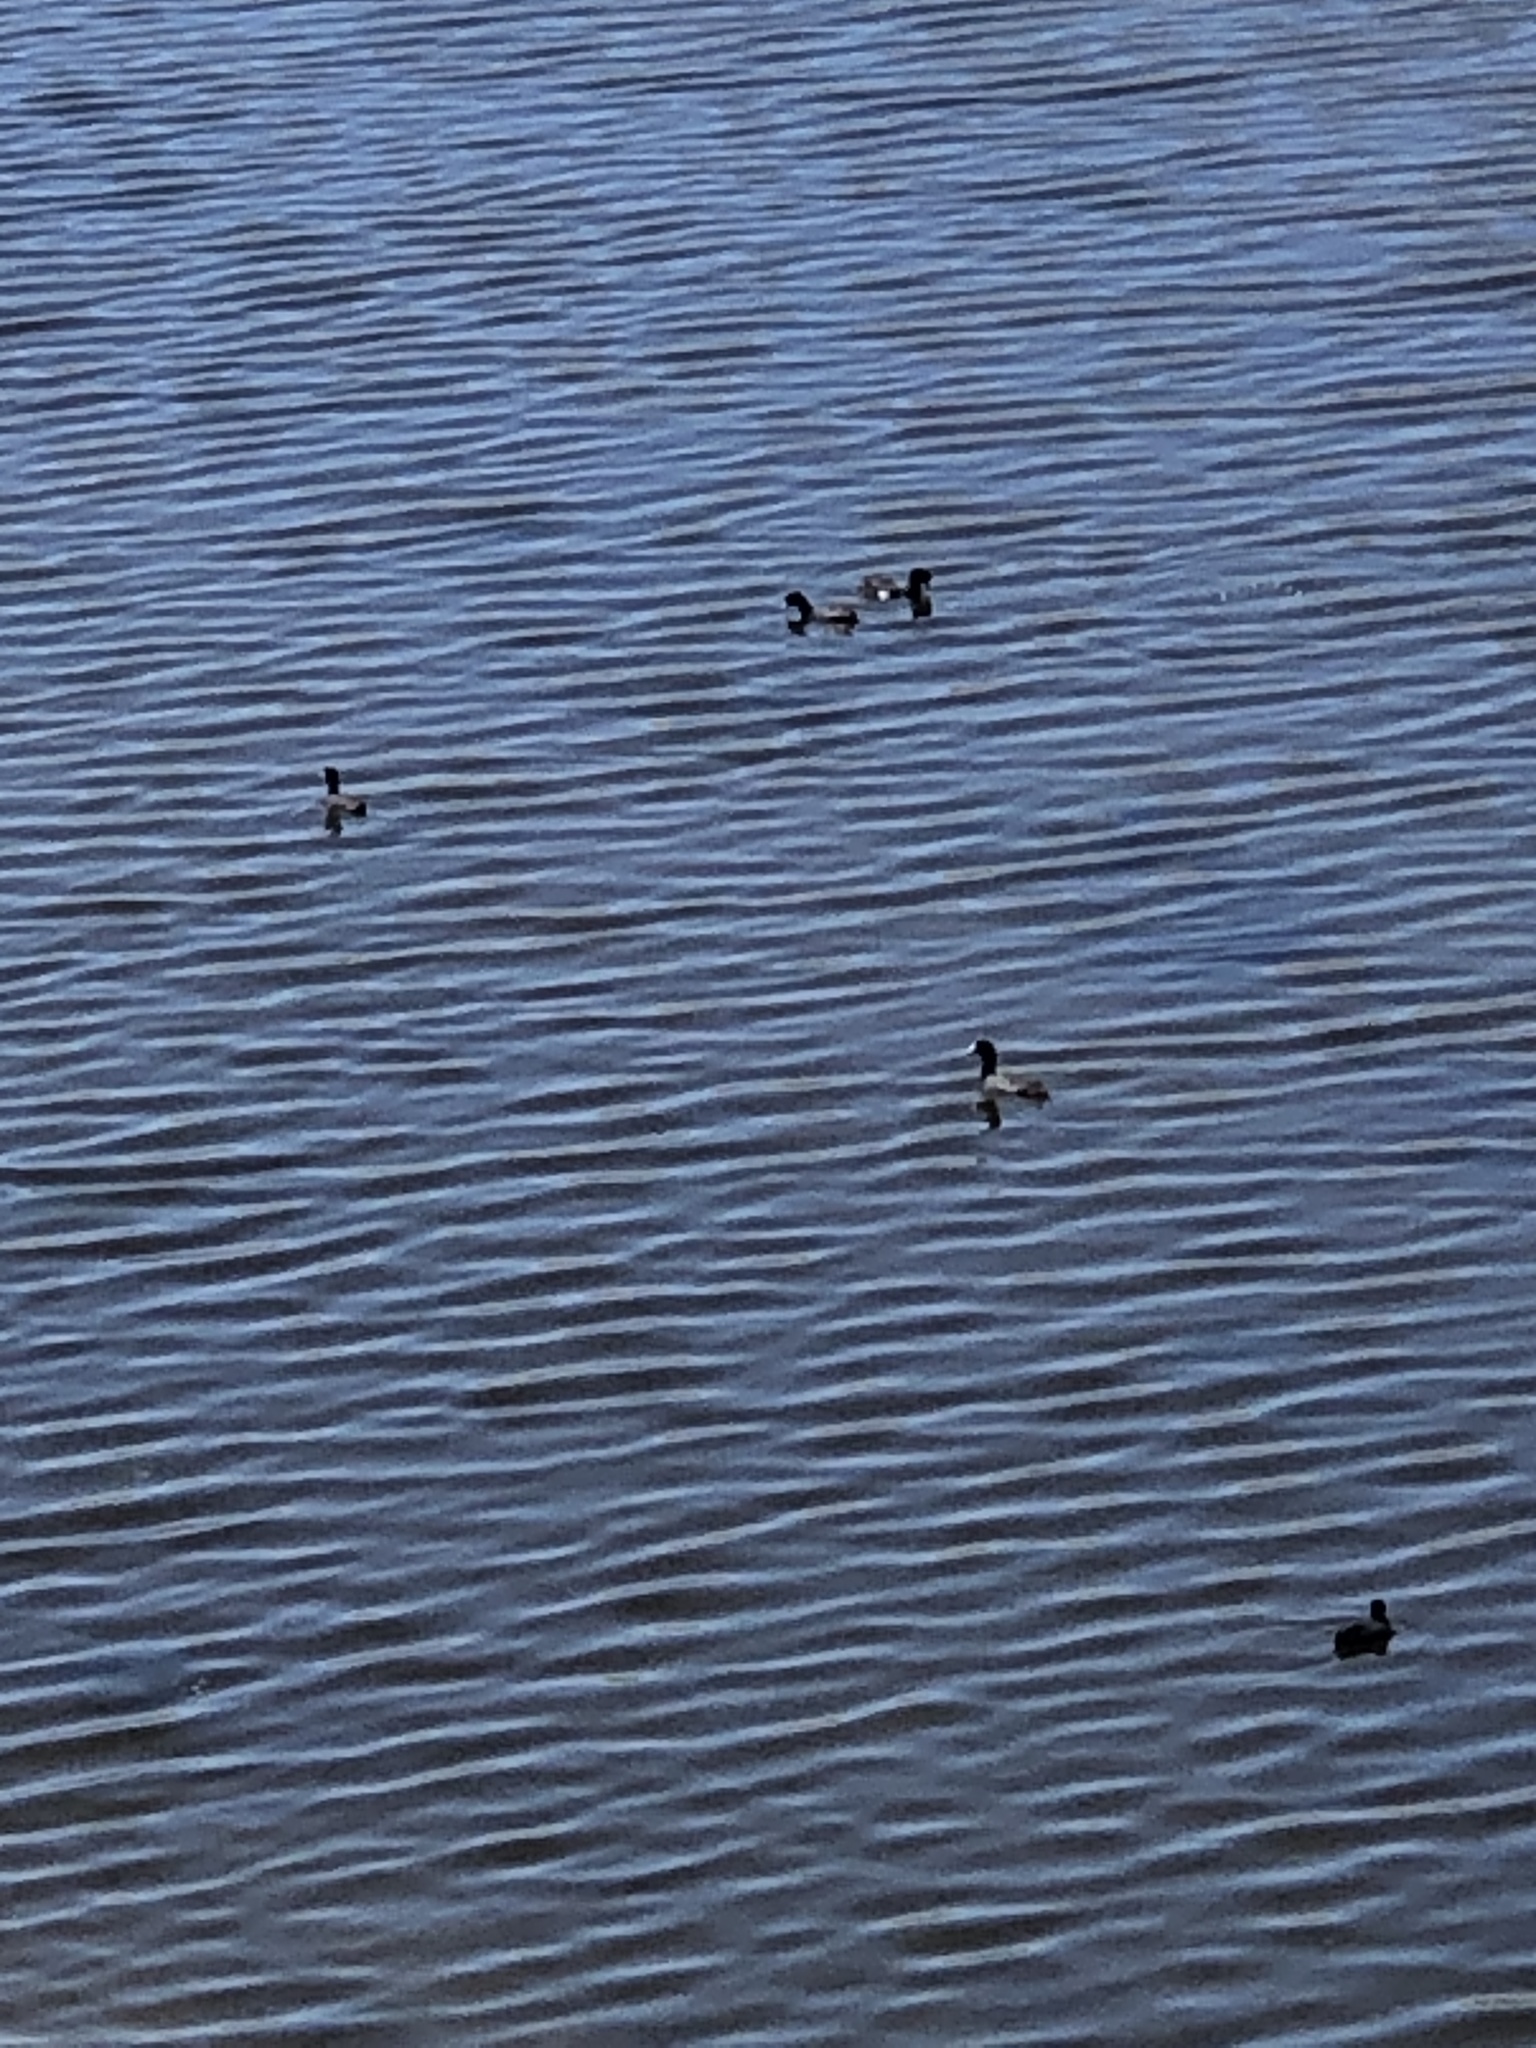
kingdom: Animalia
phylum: Chordata
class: Aves
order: Gruiformes
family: Rallidae
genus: Fulica
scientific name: Fulica americana
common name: American coot
